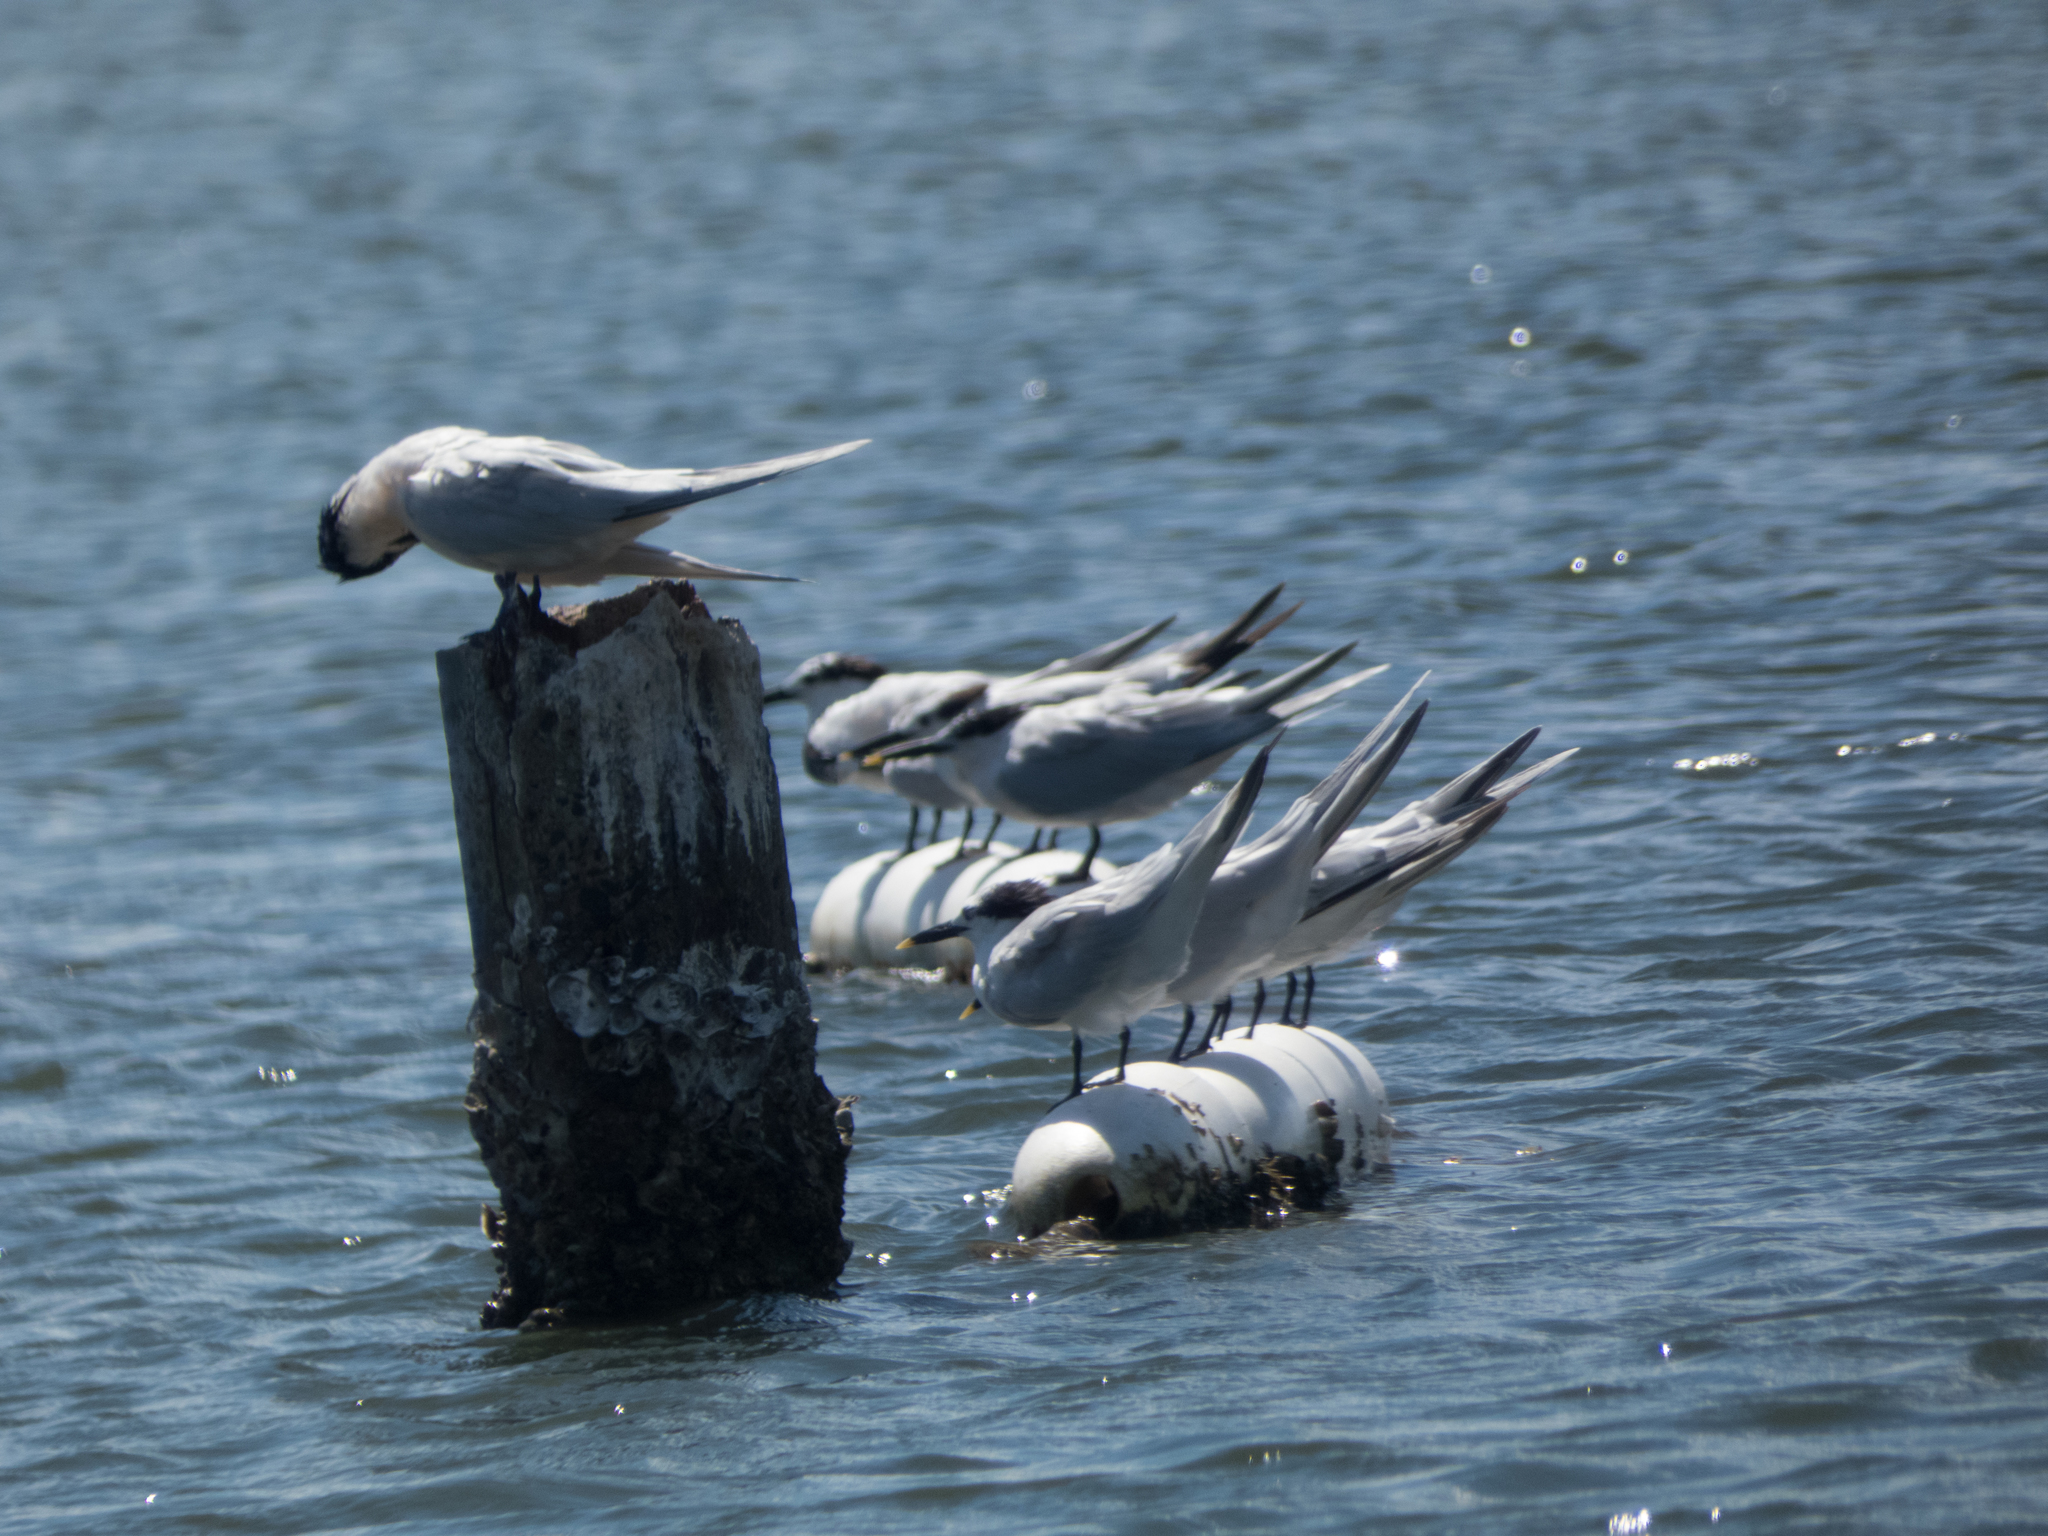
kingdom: Animalia
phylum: Chordata
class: Aves
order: Charadriiformes
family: Laridae
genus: Thalasseus
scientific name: Thalasseus sandvicensis
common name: Sandwich tern
